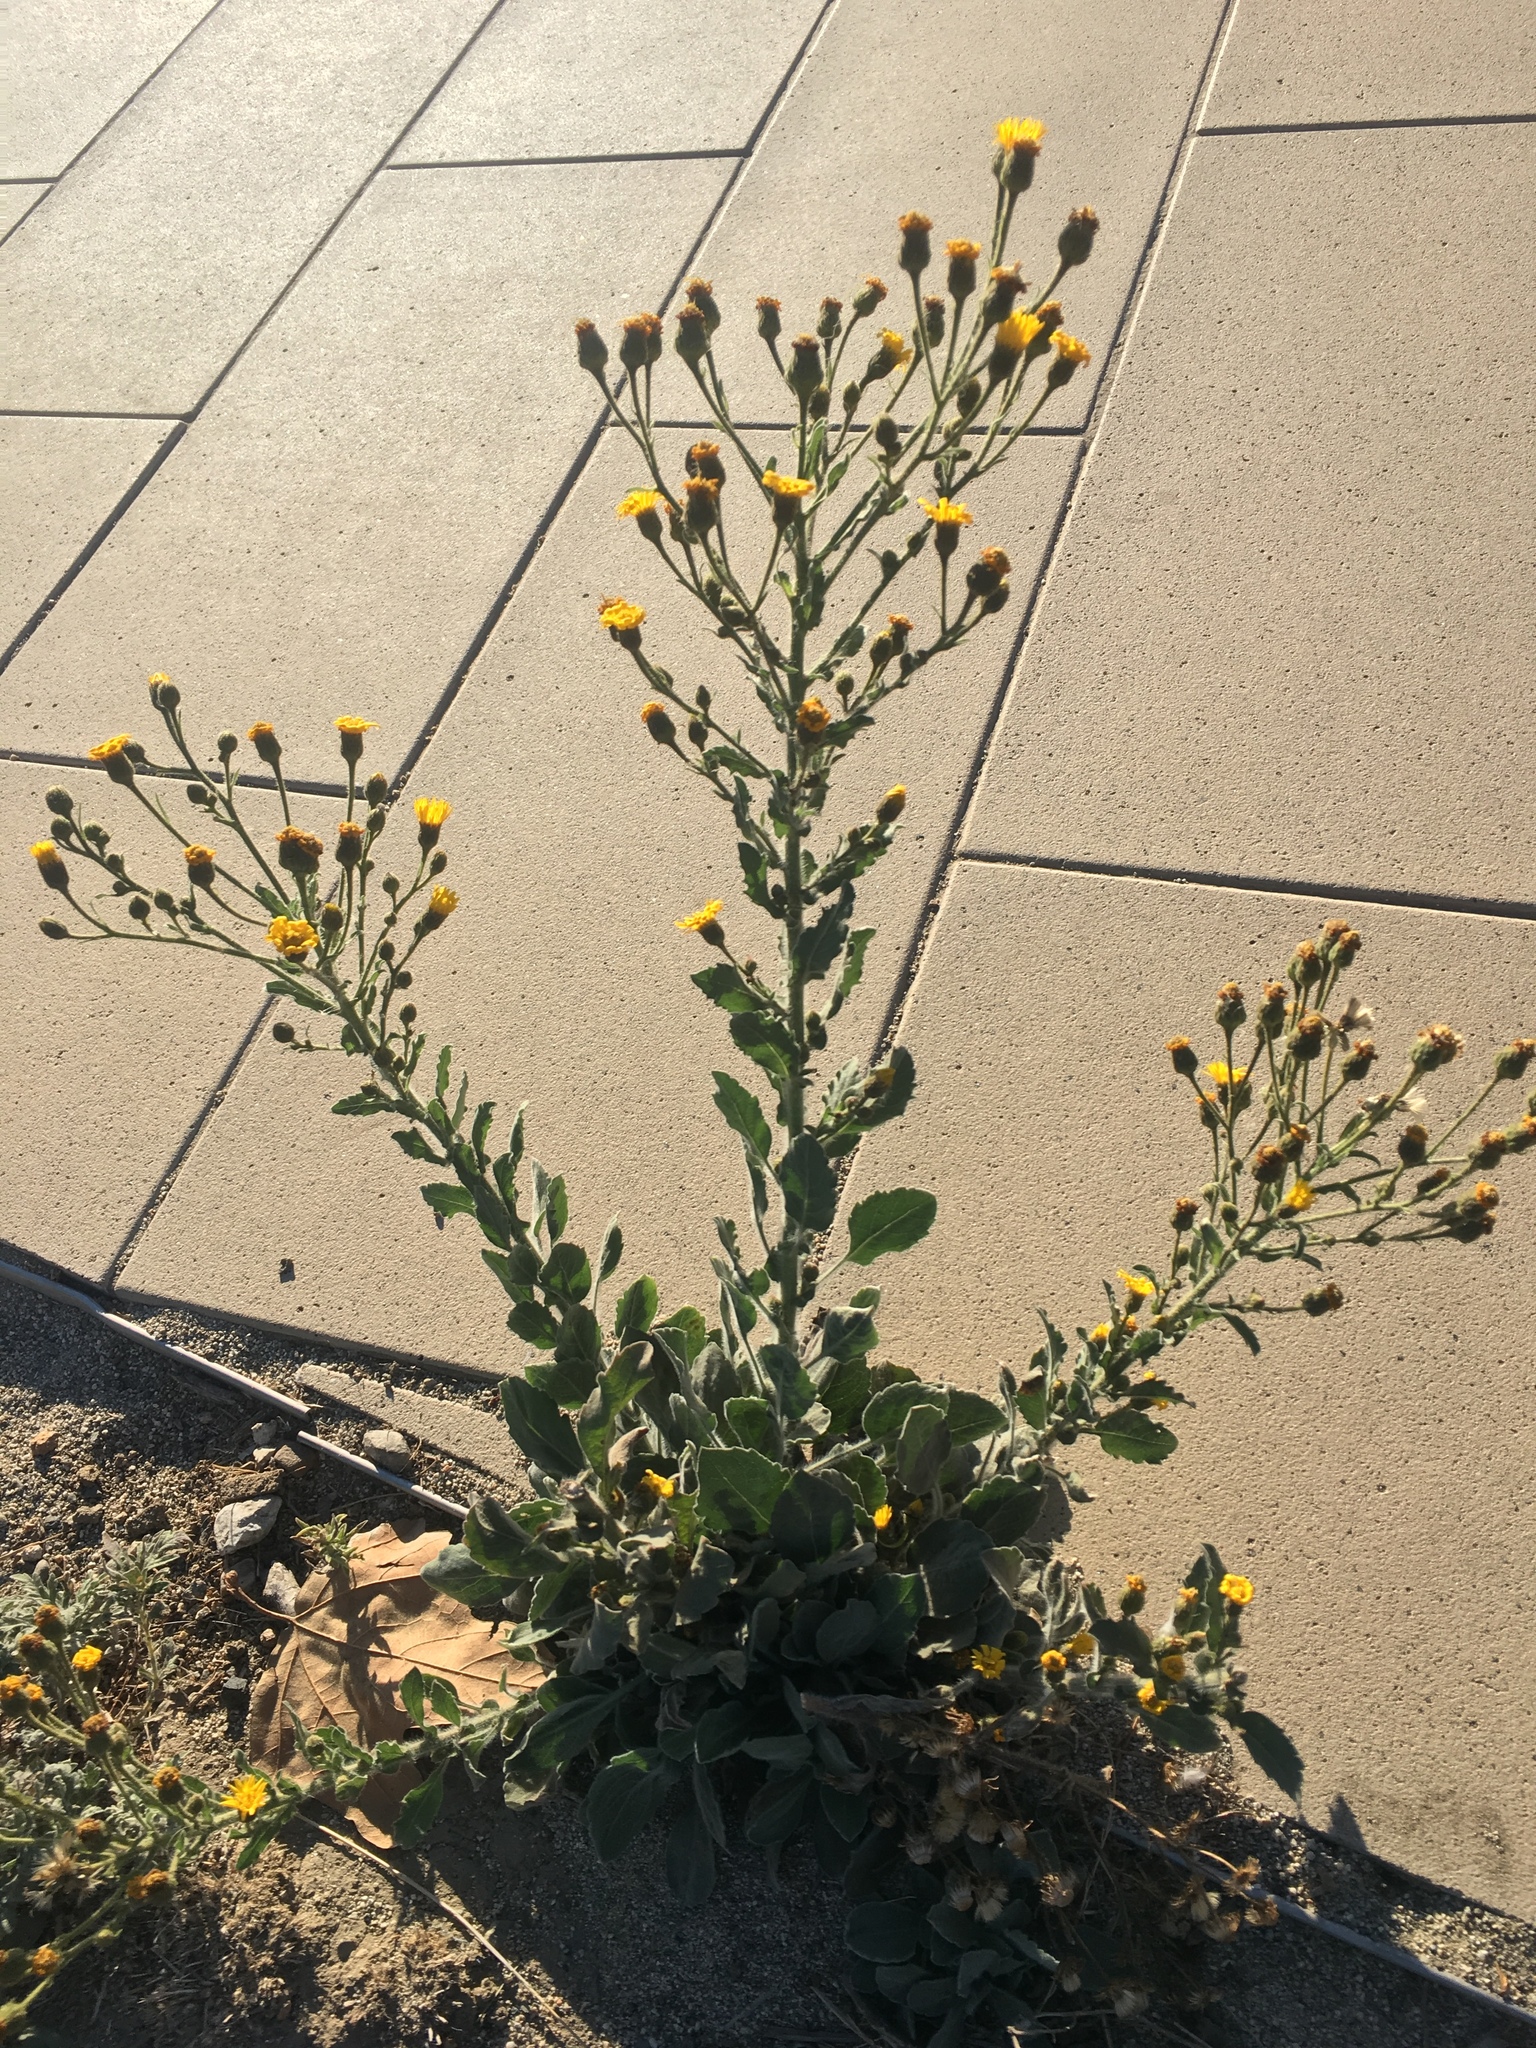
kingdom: Plantae
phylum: Tracheophyta
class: Magnoliopsida
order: Asterales
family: Asteraceae
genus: Heterotheca
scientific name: Heterotheca grandiflora
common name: Telegraphweed
